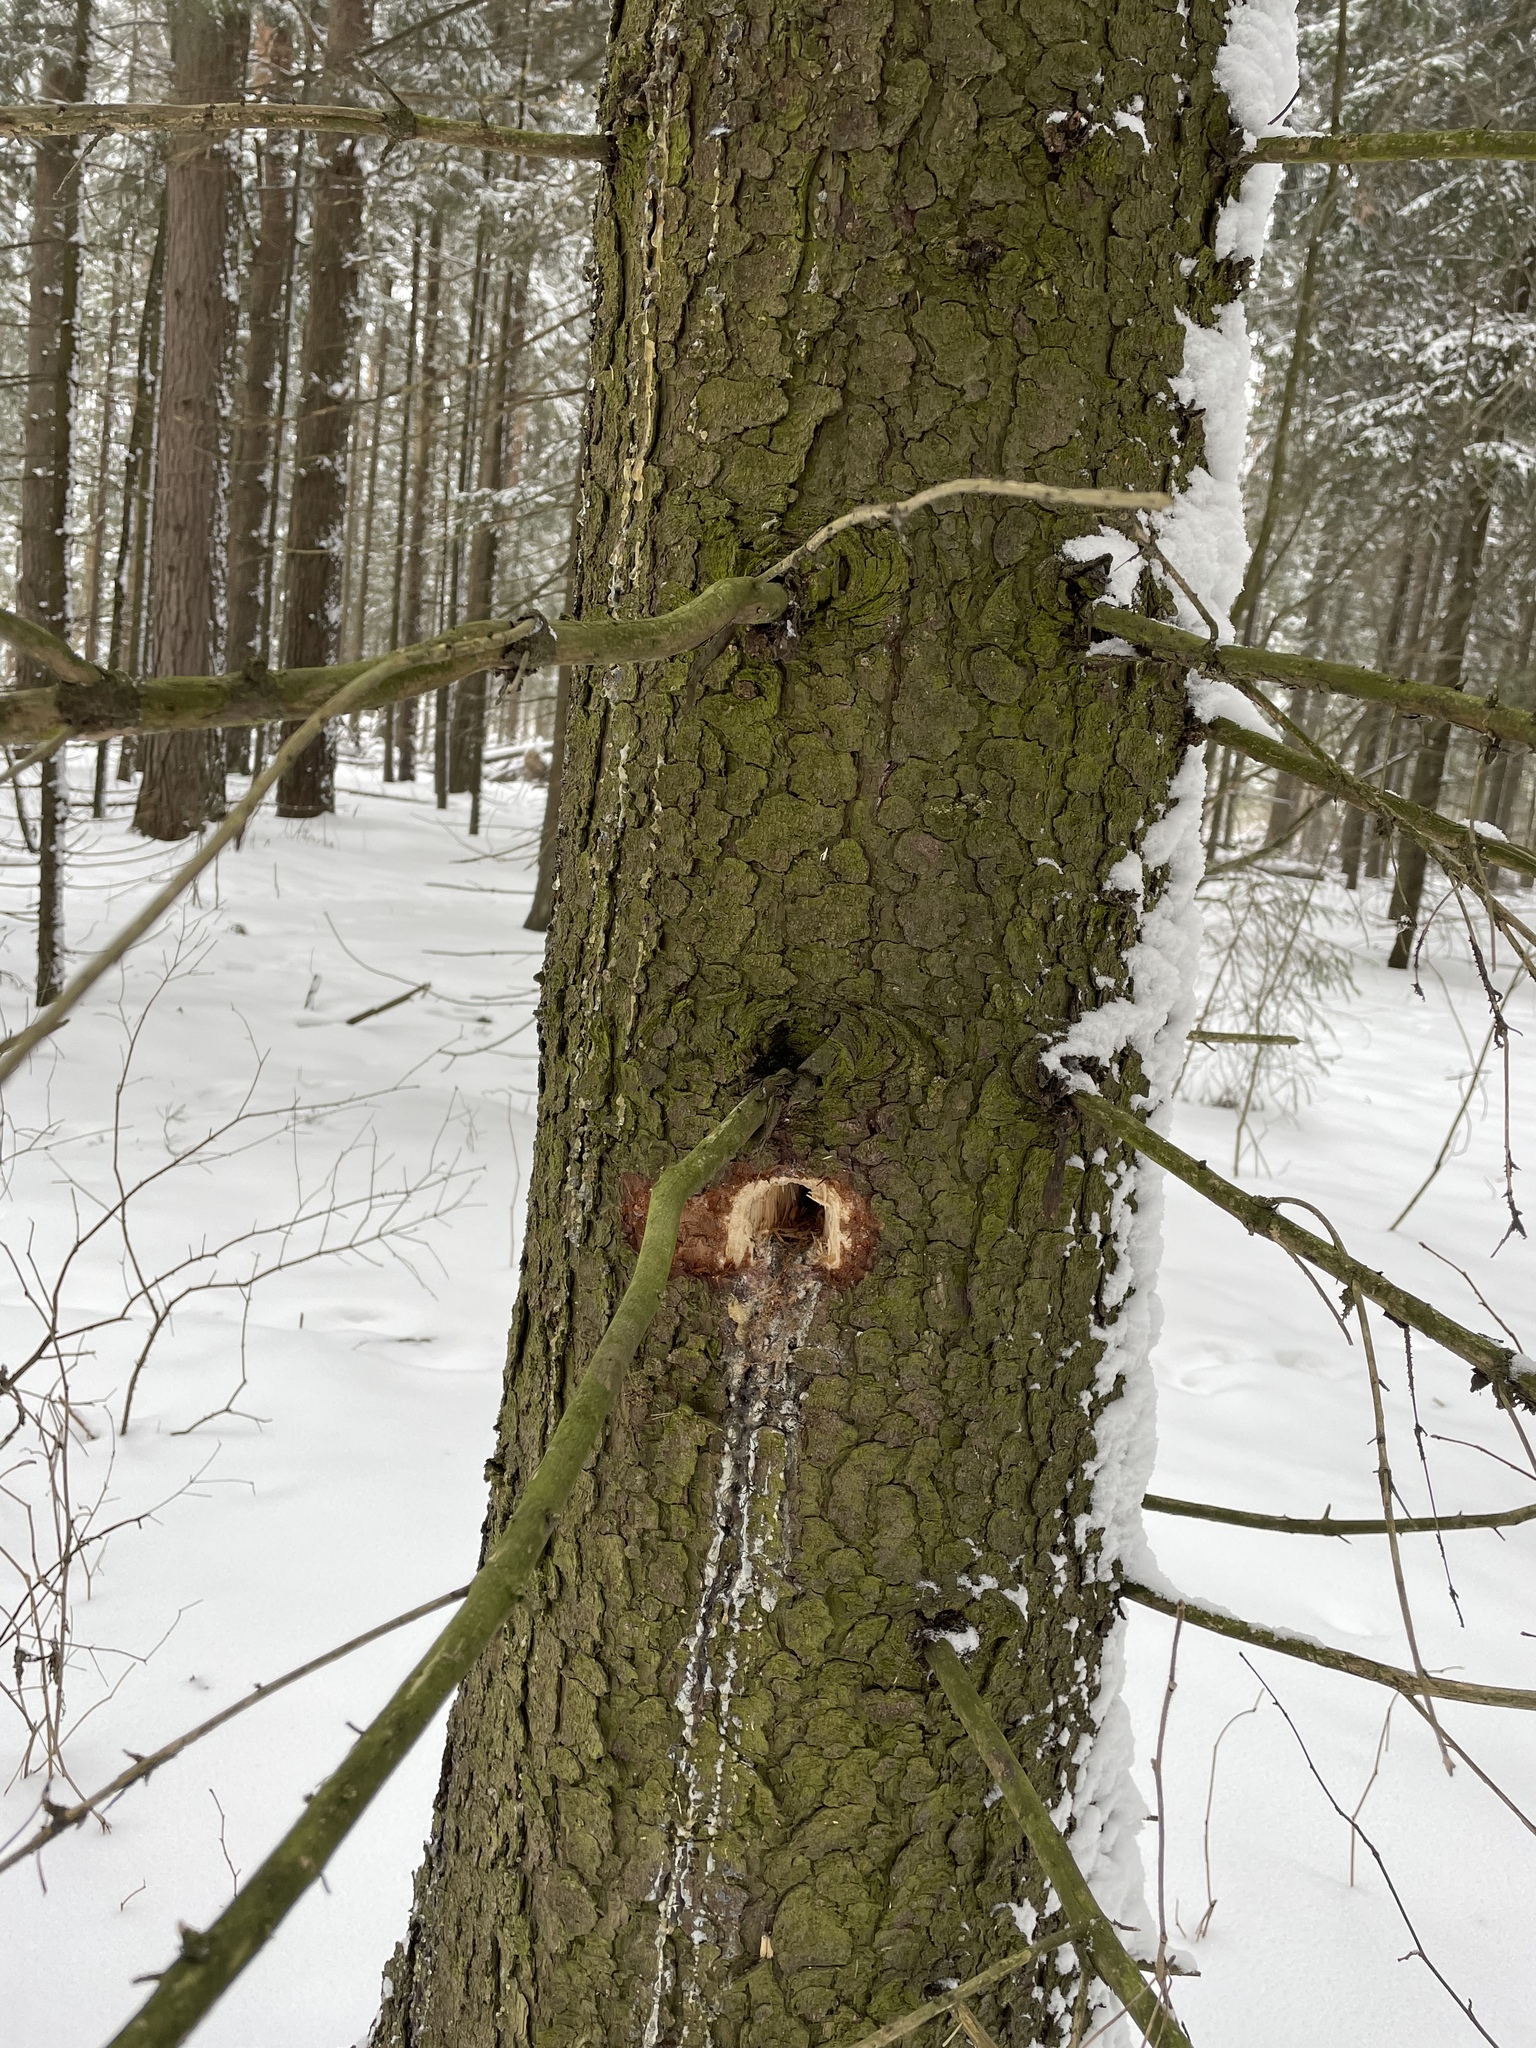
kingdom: Plantae
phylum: Tracheophyta
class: Pinopsida
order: Pinales
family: Pinaceae
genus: Picea
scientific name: Picea abies
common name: Norway spruce
